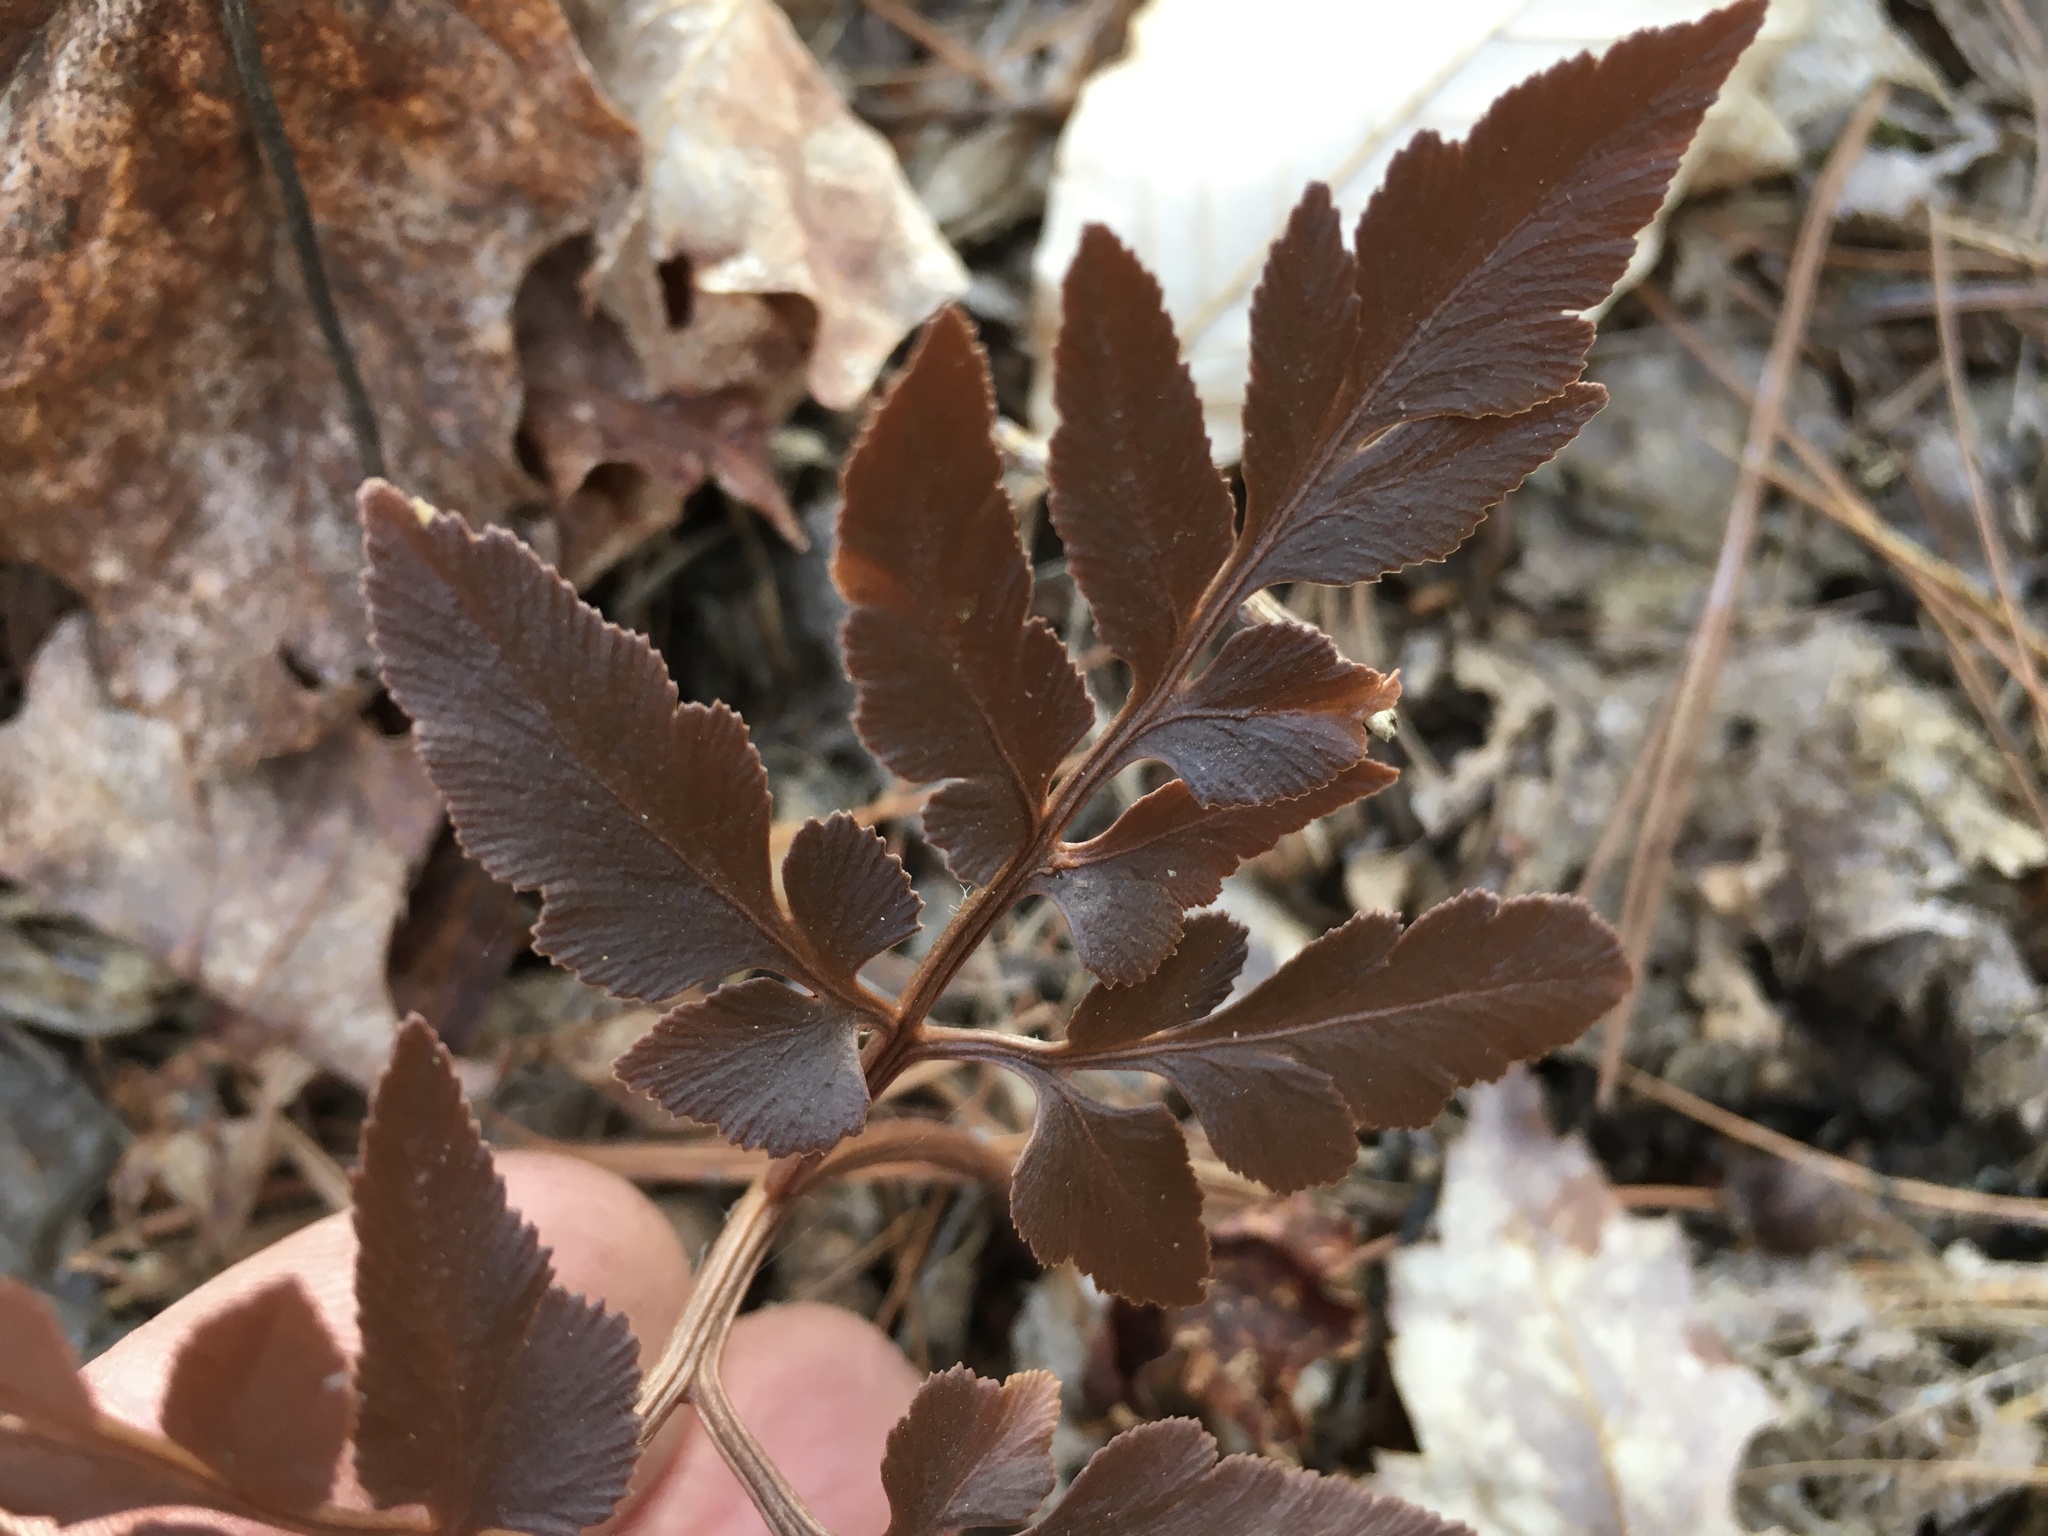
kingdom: Plantae
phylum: Tracheophyta
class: Polypodiopsida
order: Ophioglossales
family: Ophioglossaceae
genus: Sceptridium
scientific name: Sceptridium dissectum
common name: Cut-leaved grapefern
